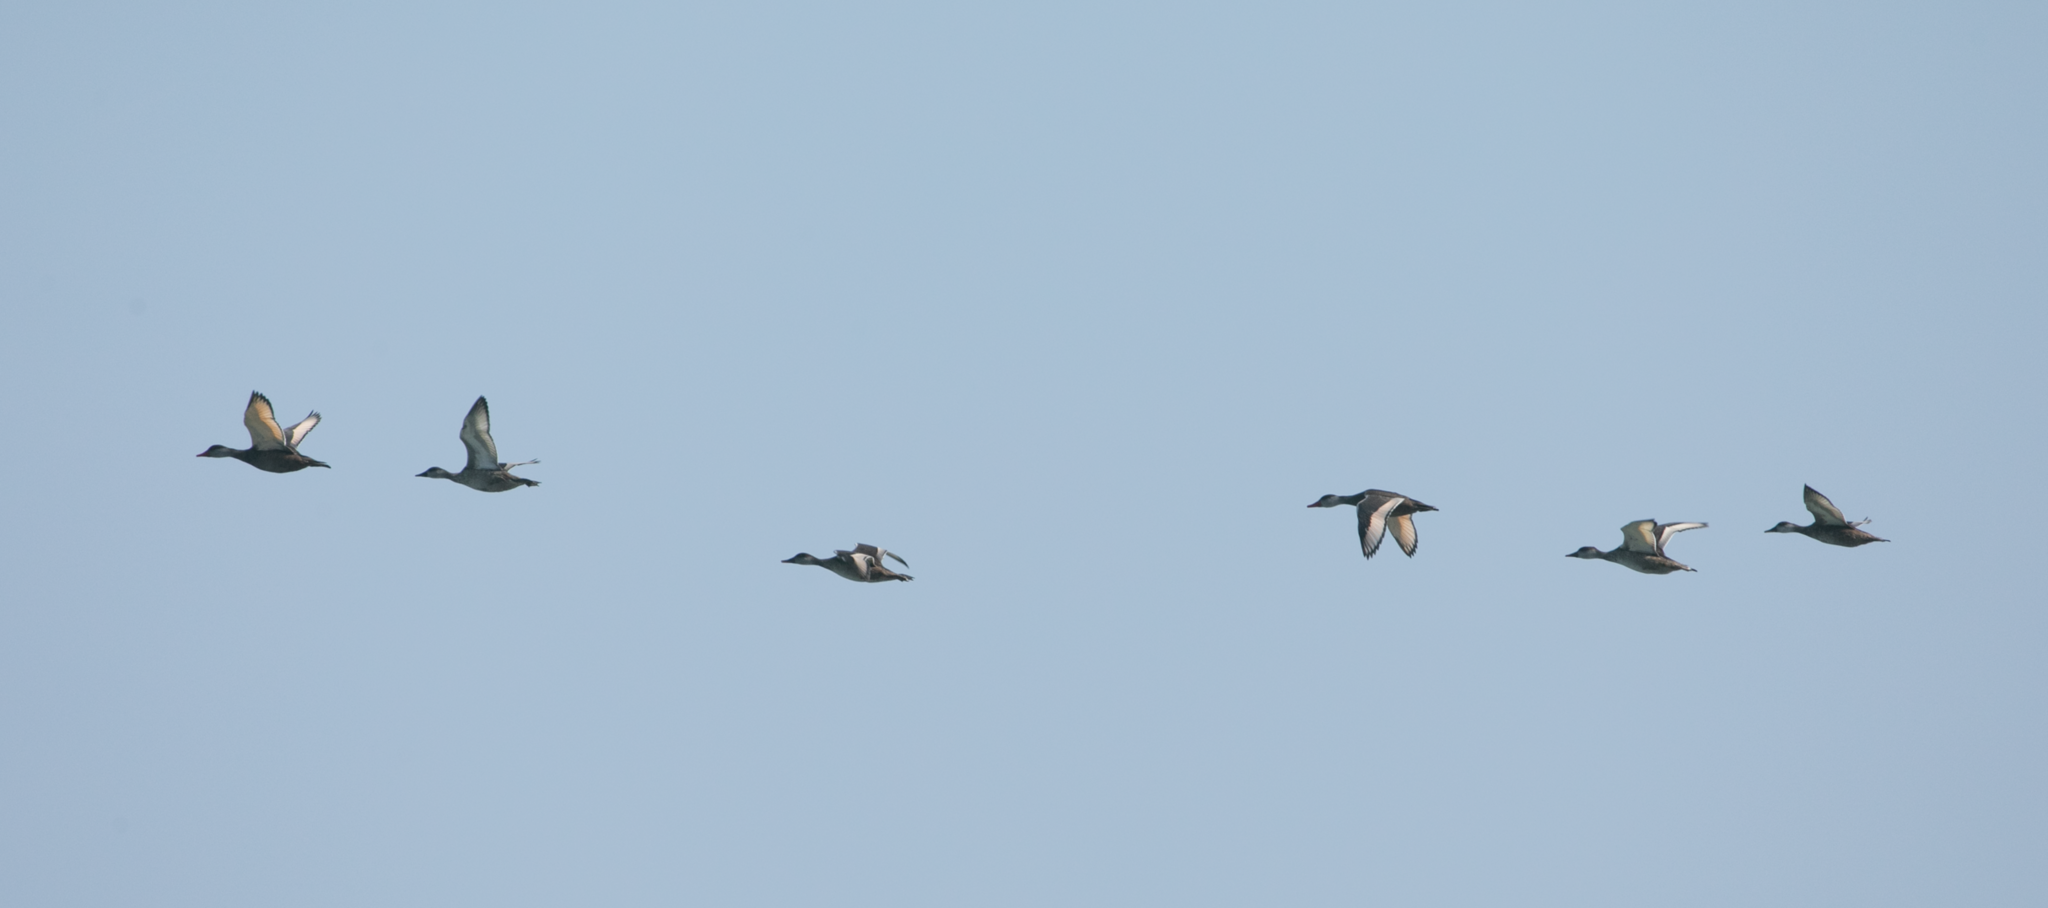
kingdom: Animalia
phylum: Chordata
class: Aves
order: Anseriformes
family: Anatidae
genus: Netta
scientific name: Netta rufina
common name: Red-crested pochard
